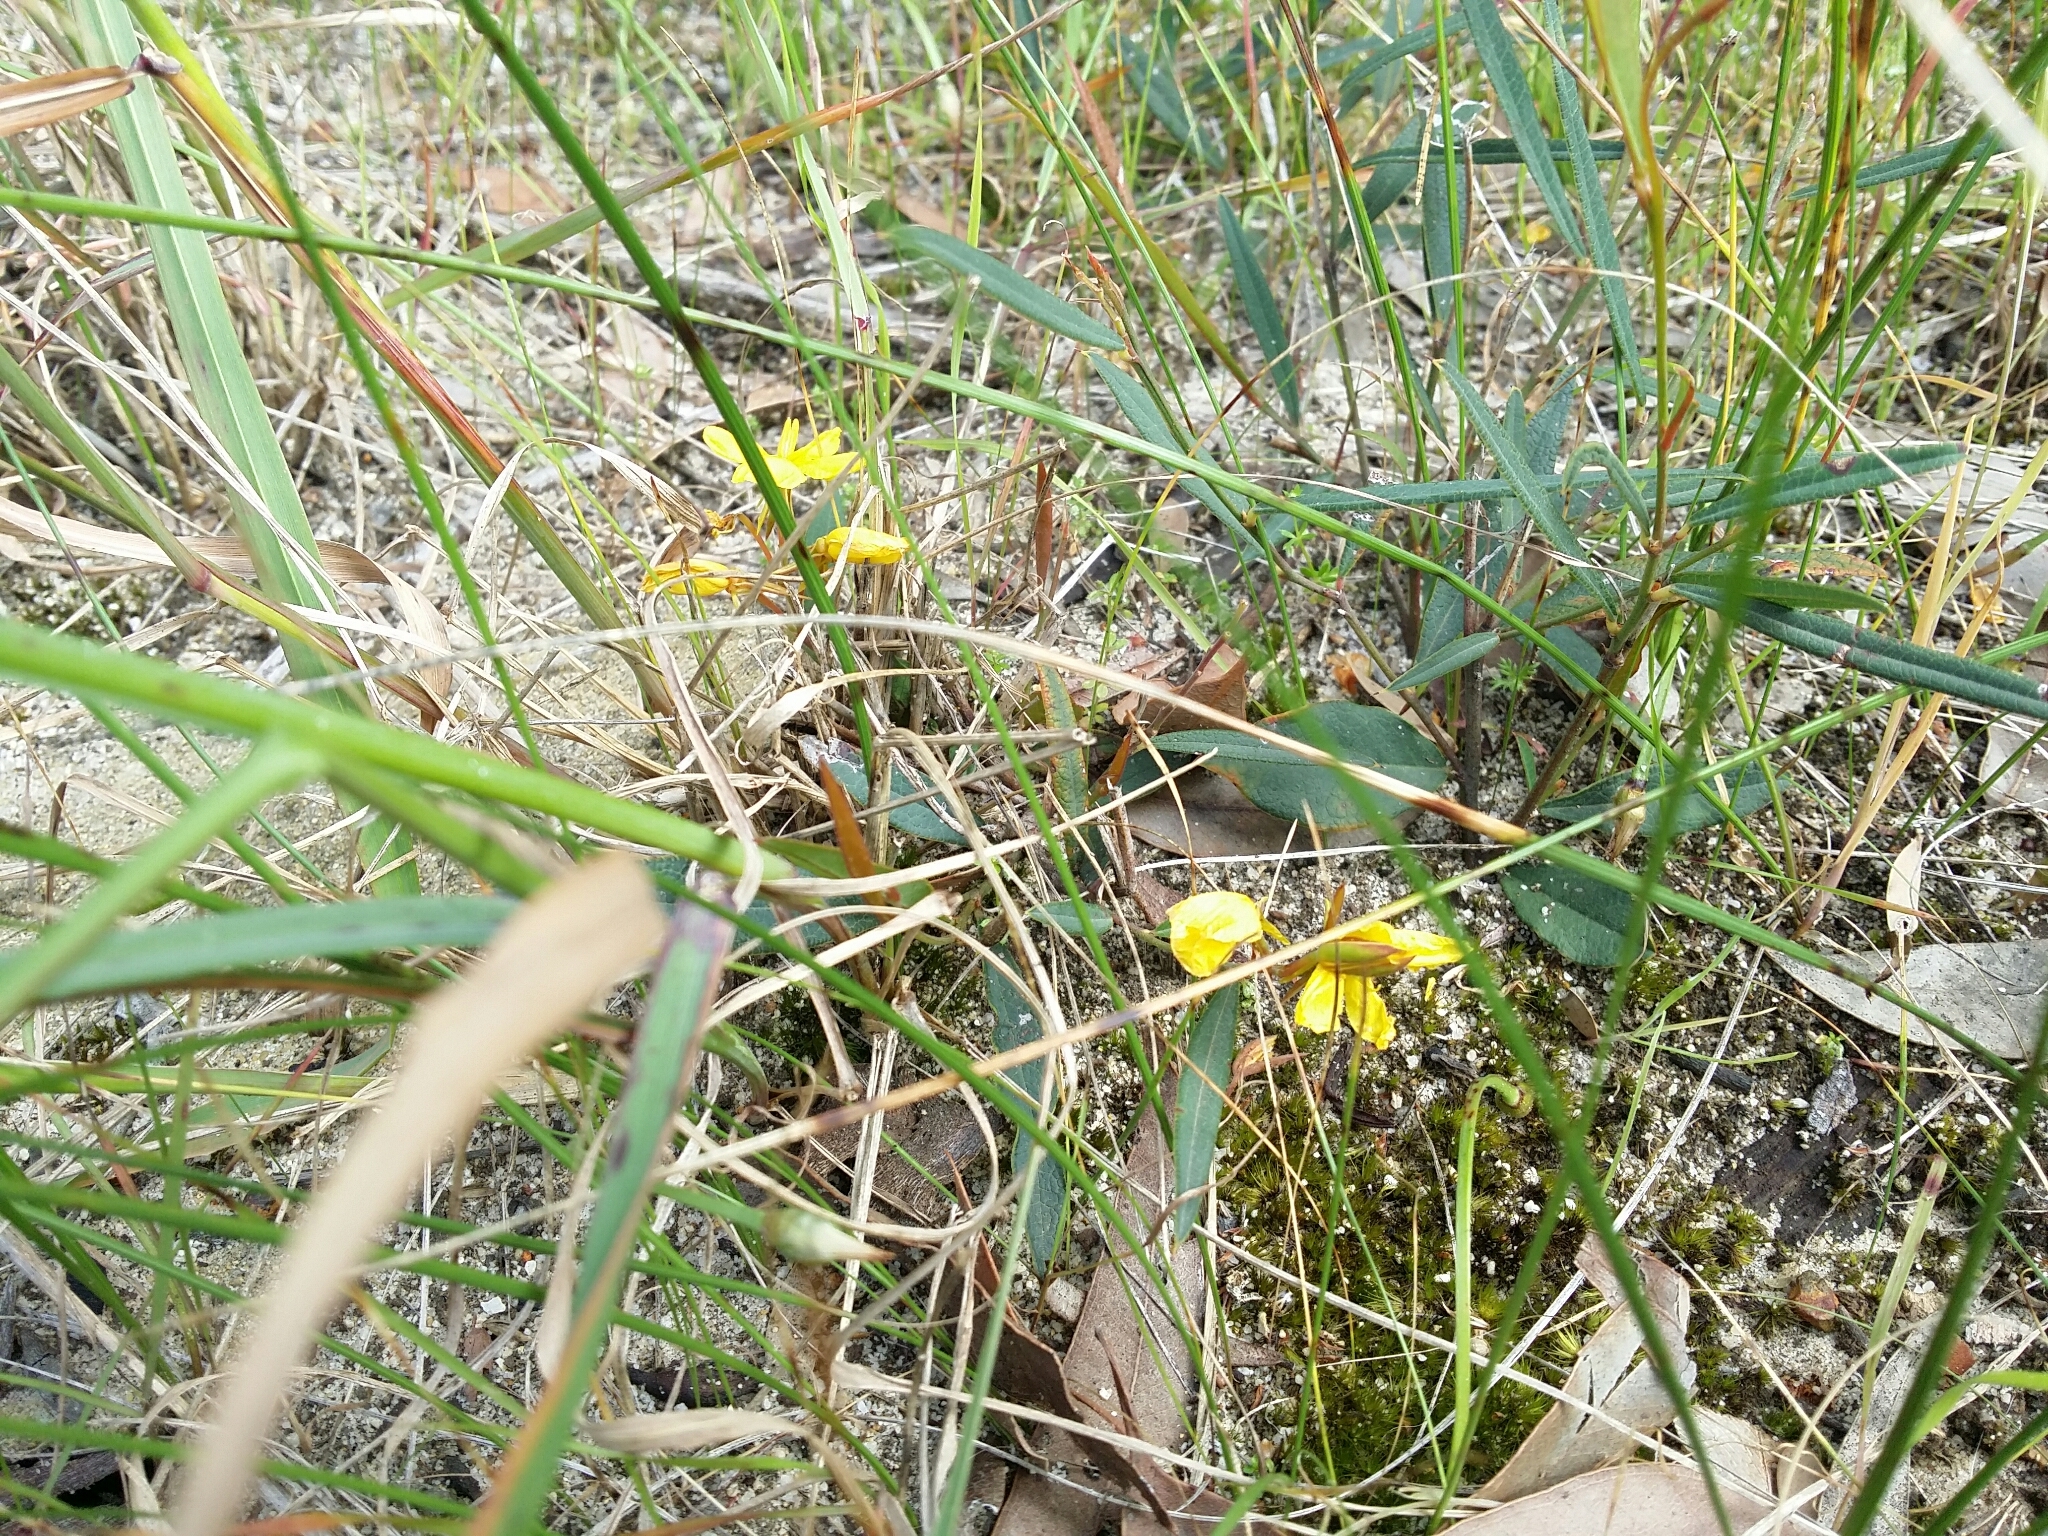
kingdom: Plantae
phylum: Tracheophyta
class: Magnoliopsida
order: Fabales
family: Fabaceae
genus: Labichea
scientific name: Labichea punctata
